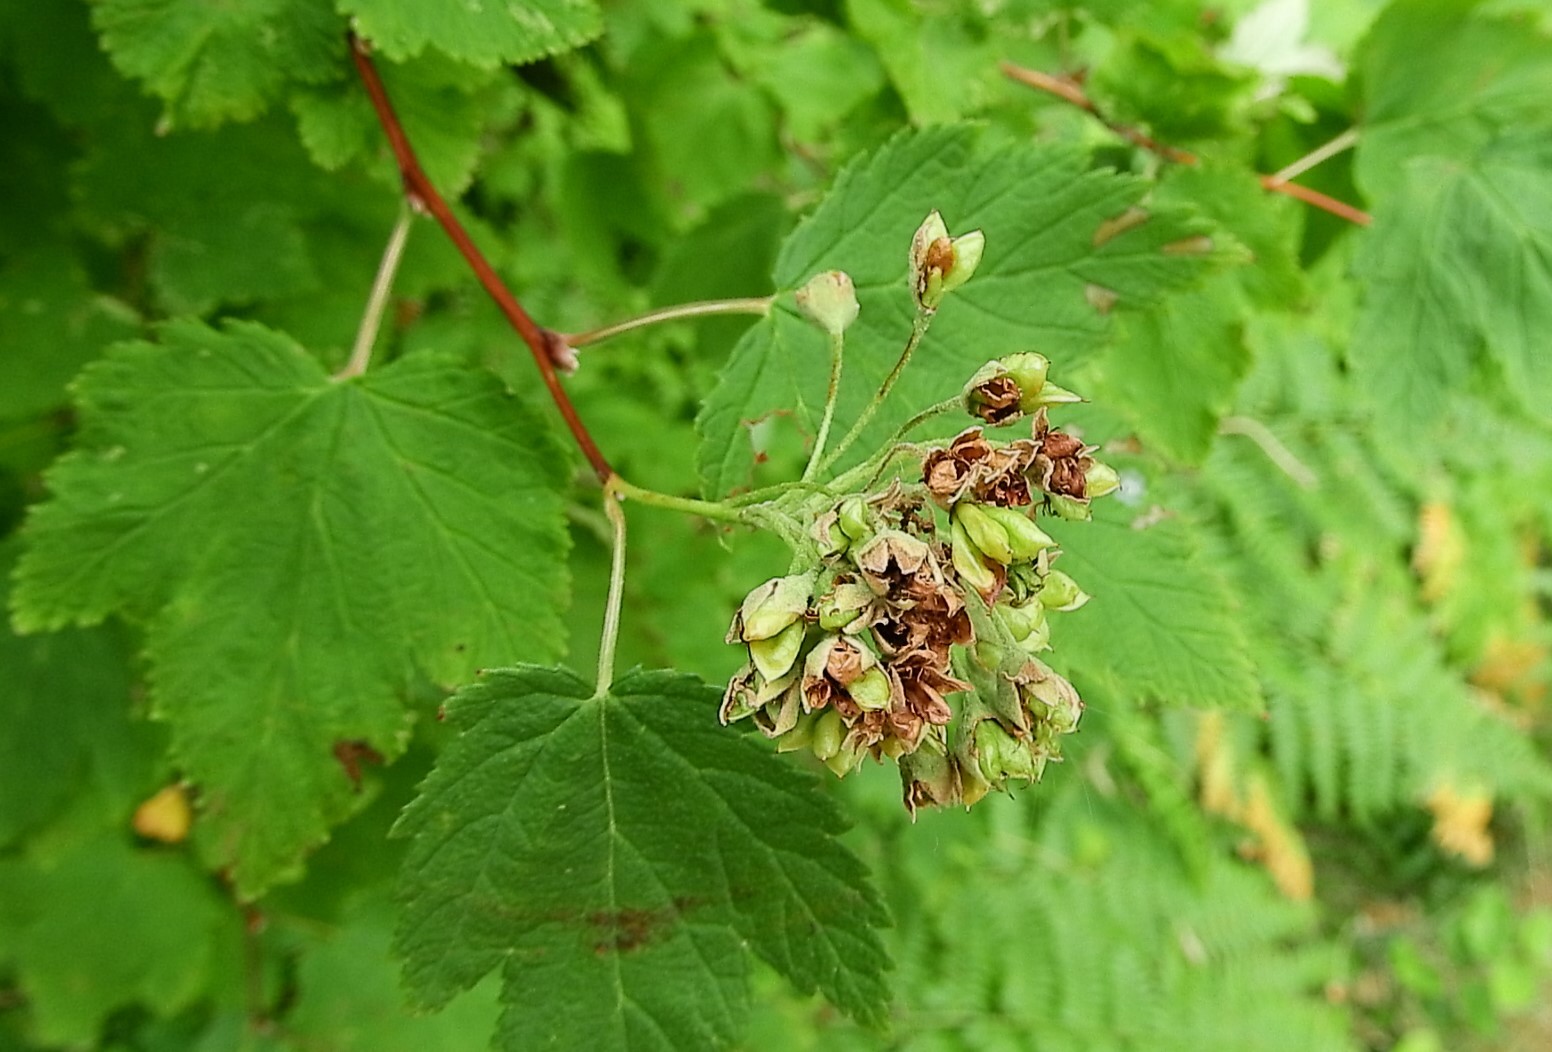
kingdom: Plantae
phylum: Tracheophyta
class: Magnoliopsida
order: Rosales
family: Rosaceae
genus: Physocarpus
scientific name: Physocarpus capitatus
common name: Pacific ninebark
